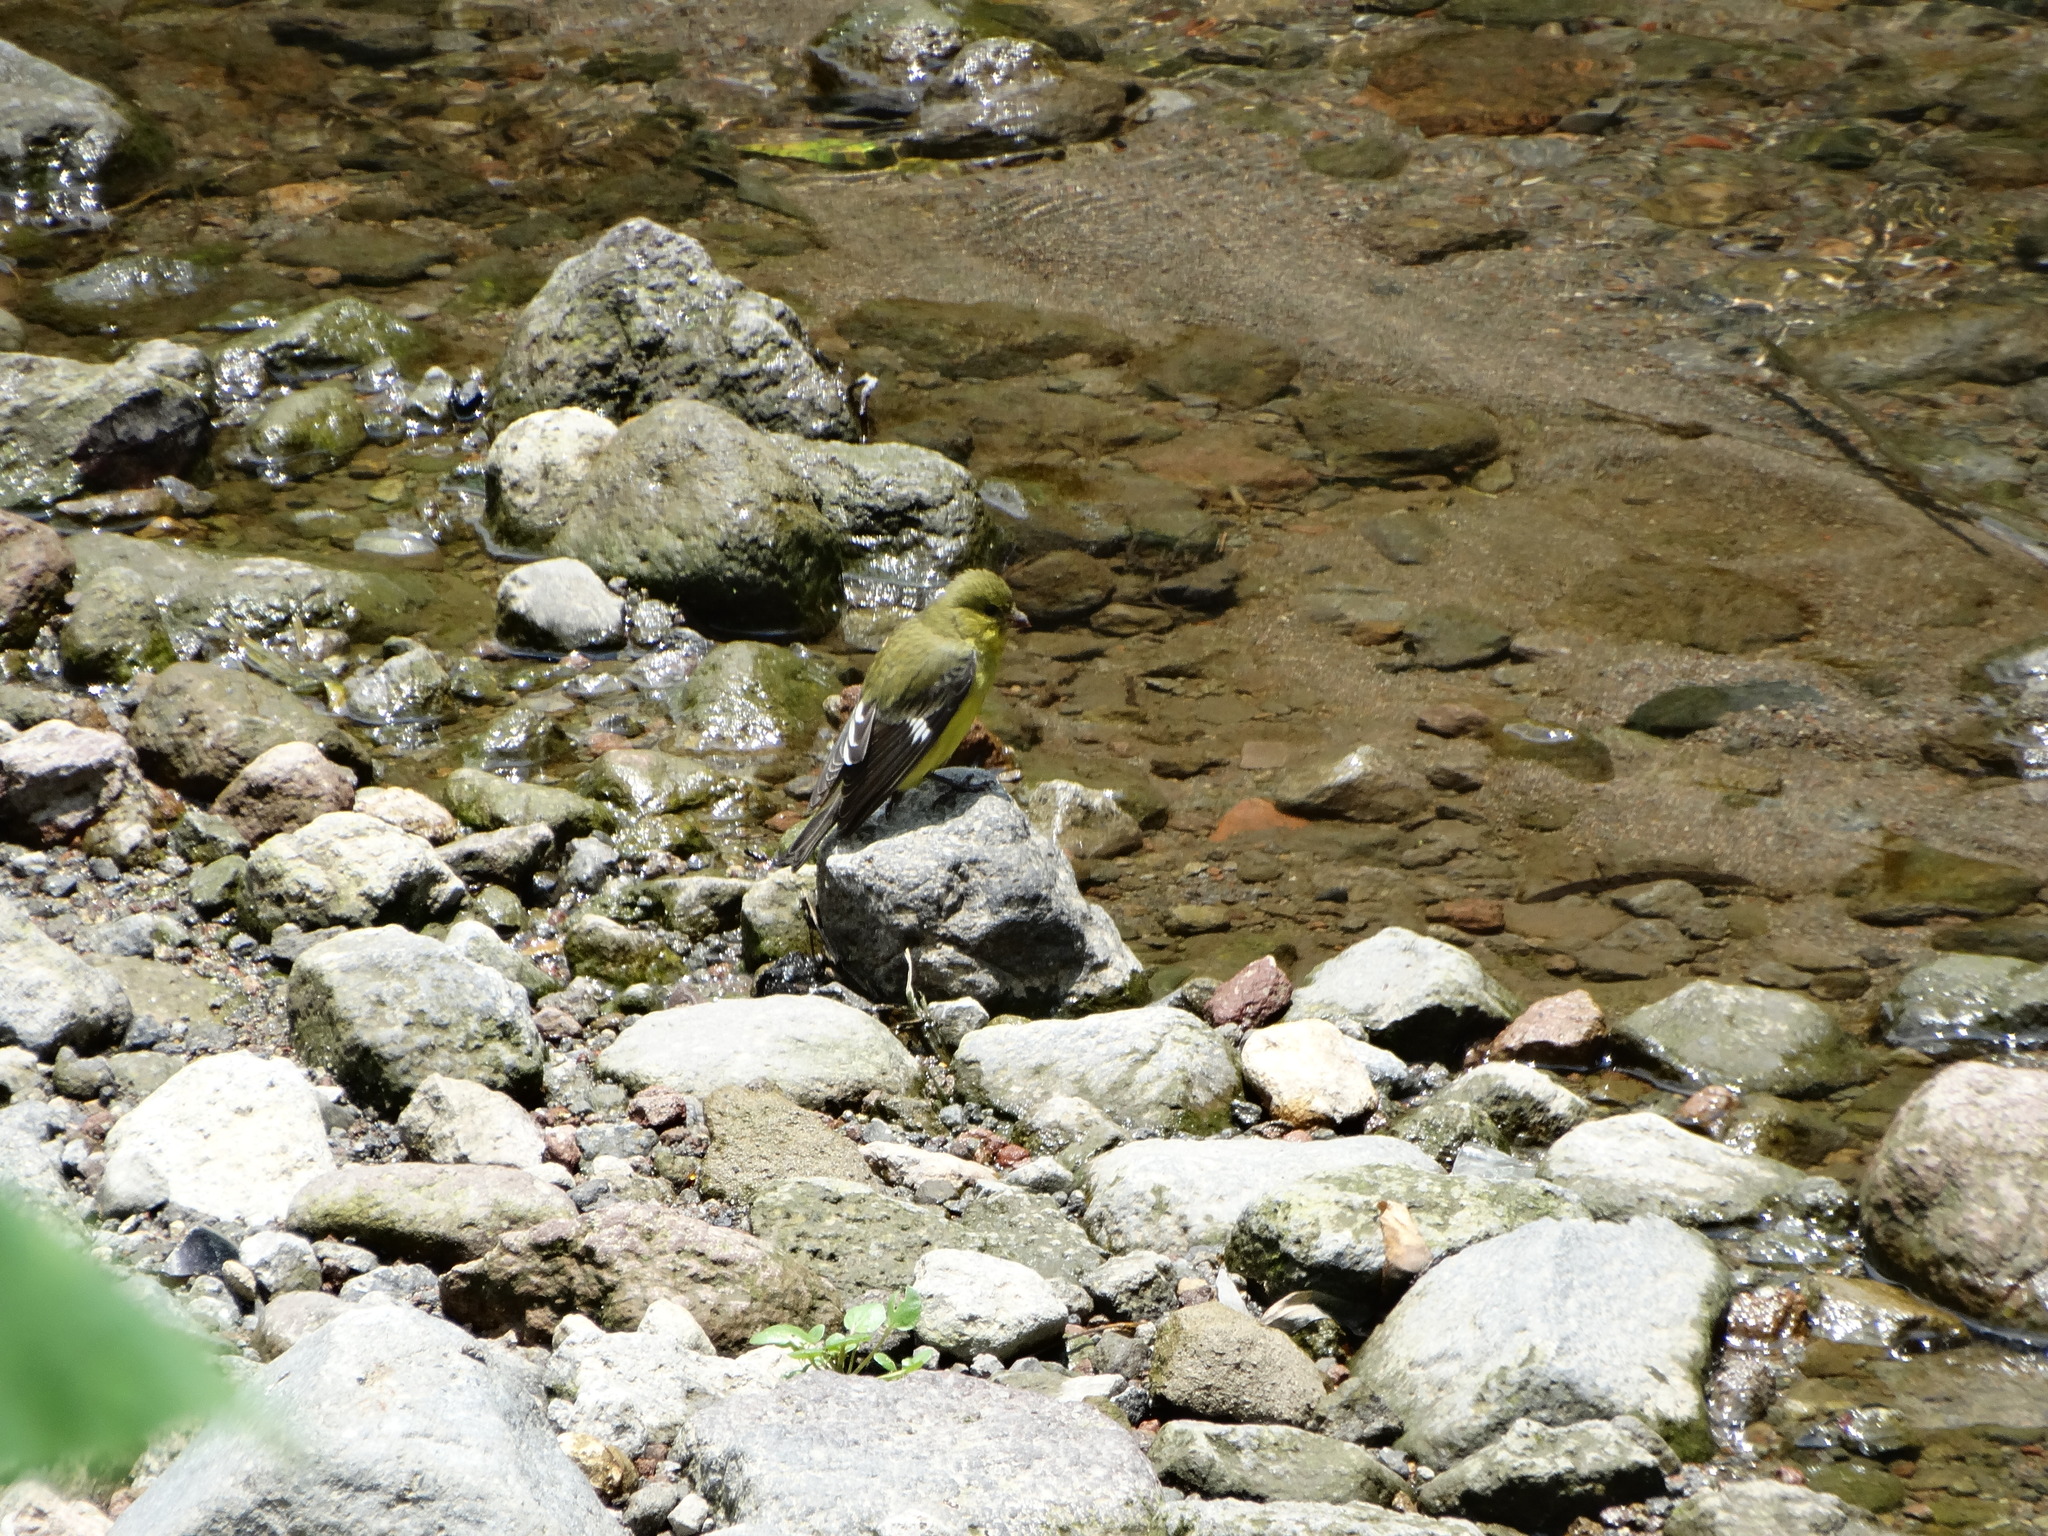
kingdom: Animalia
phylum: Chordata
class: Aves
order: Passeriformes
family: Fringillidae
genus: Spinus
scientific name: Spinus psaltria
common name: Lesser goldfinch
